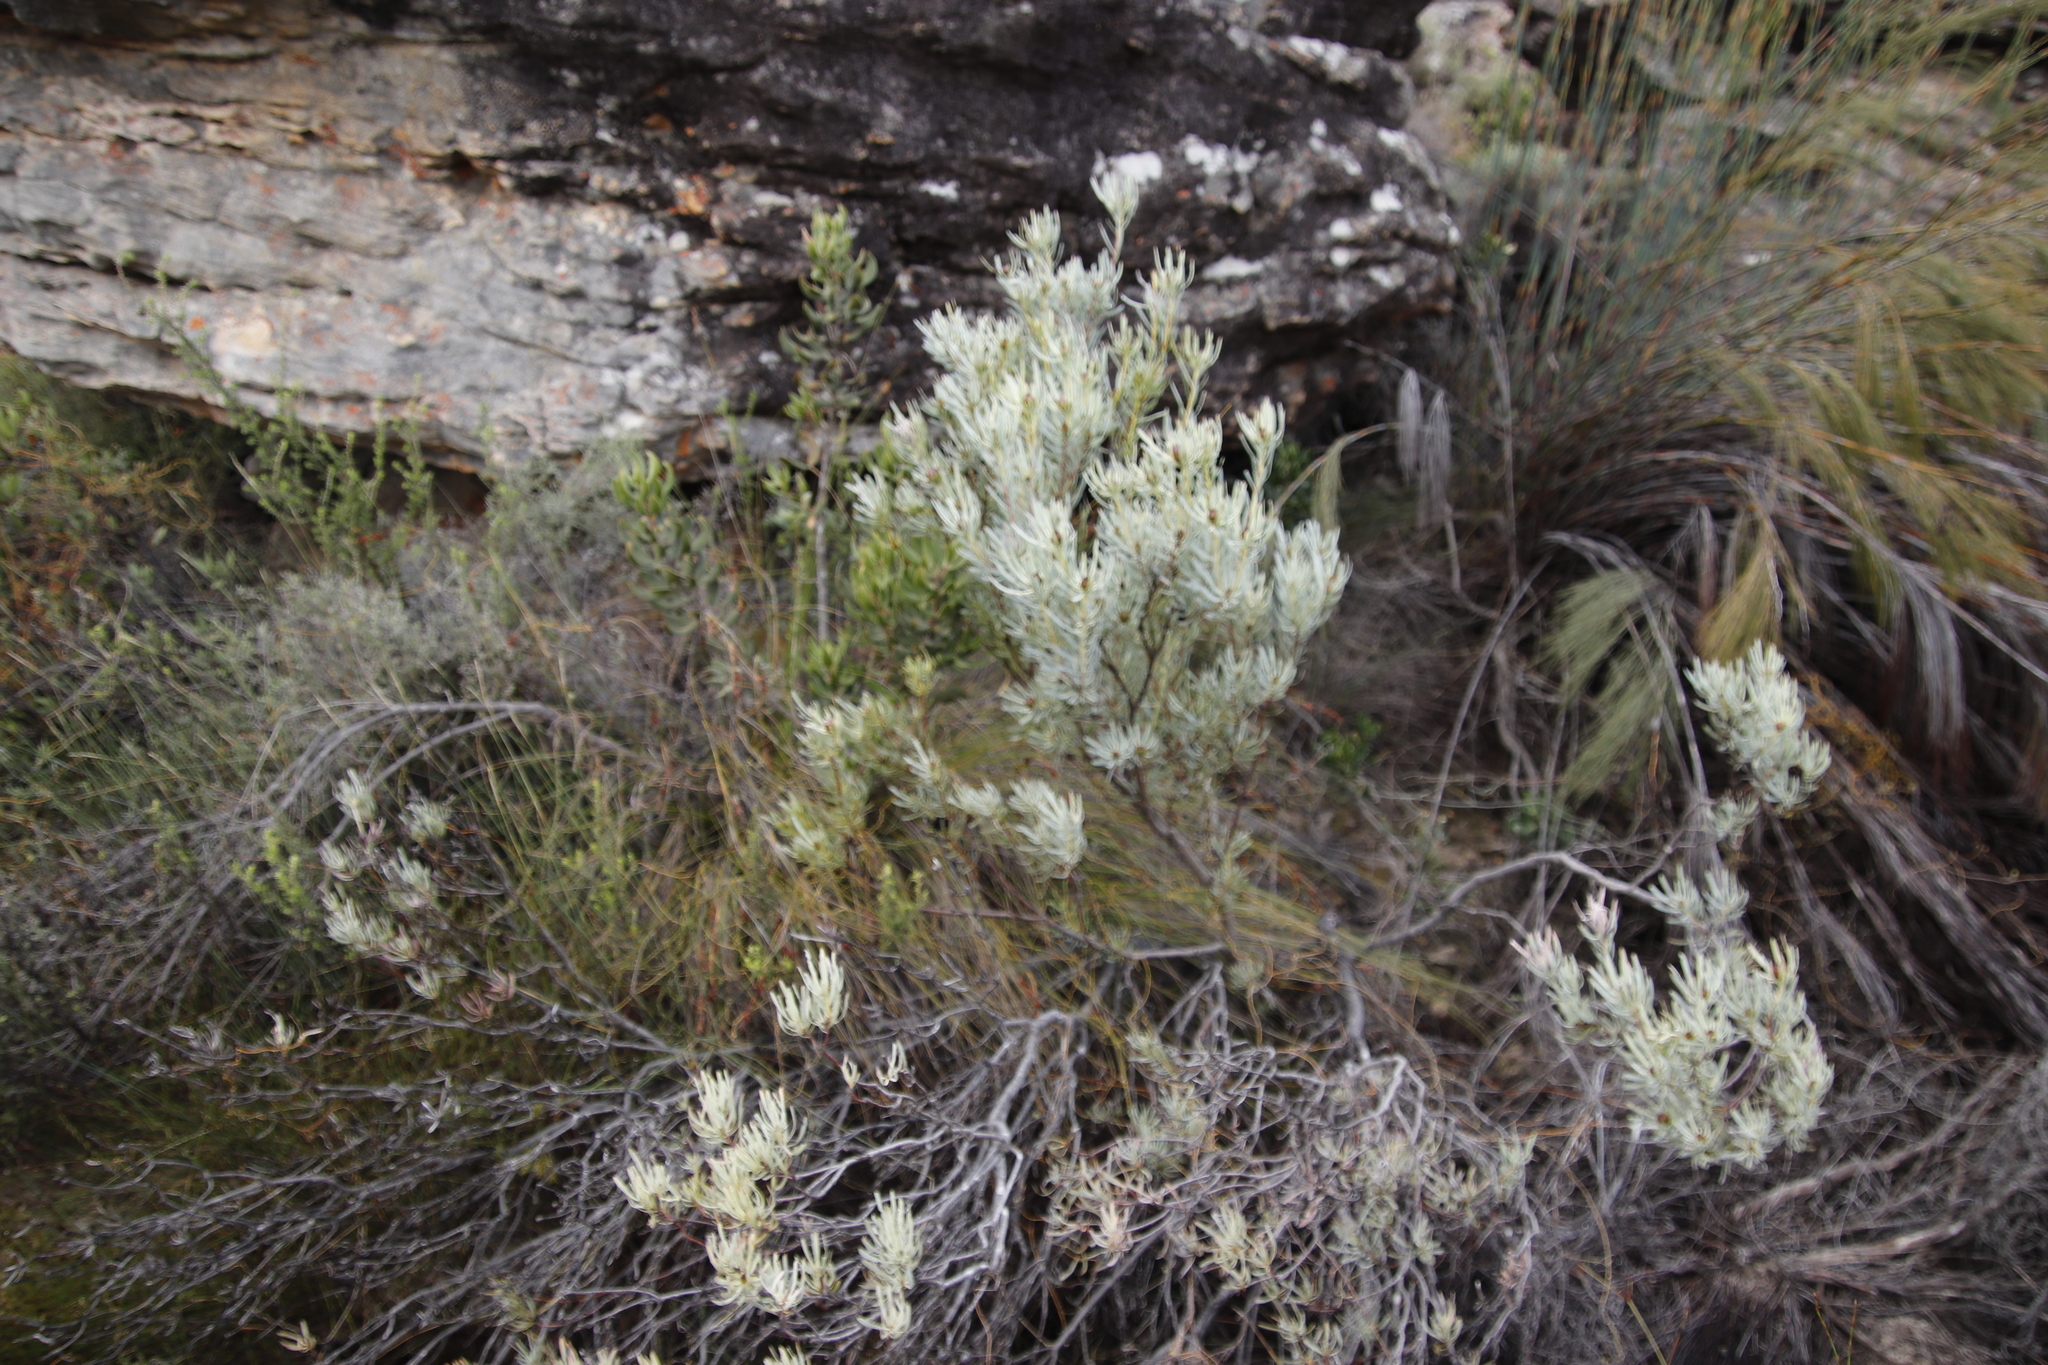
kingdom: Plantae
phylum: Tracheophyta
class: Magnoliopsida
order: Proteales
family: Proteaceae
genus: Leucadendron
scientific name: Leucadendron meyerianum
